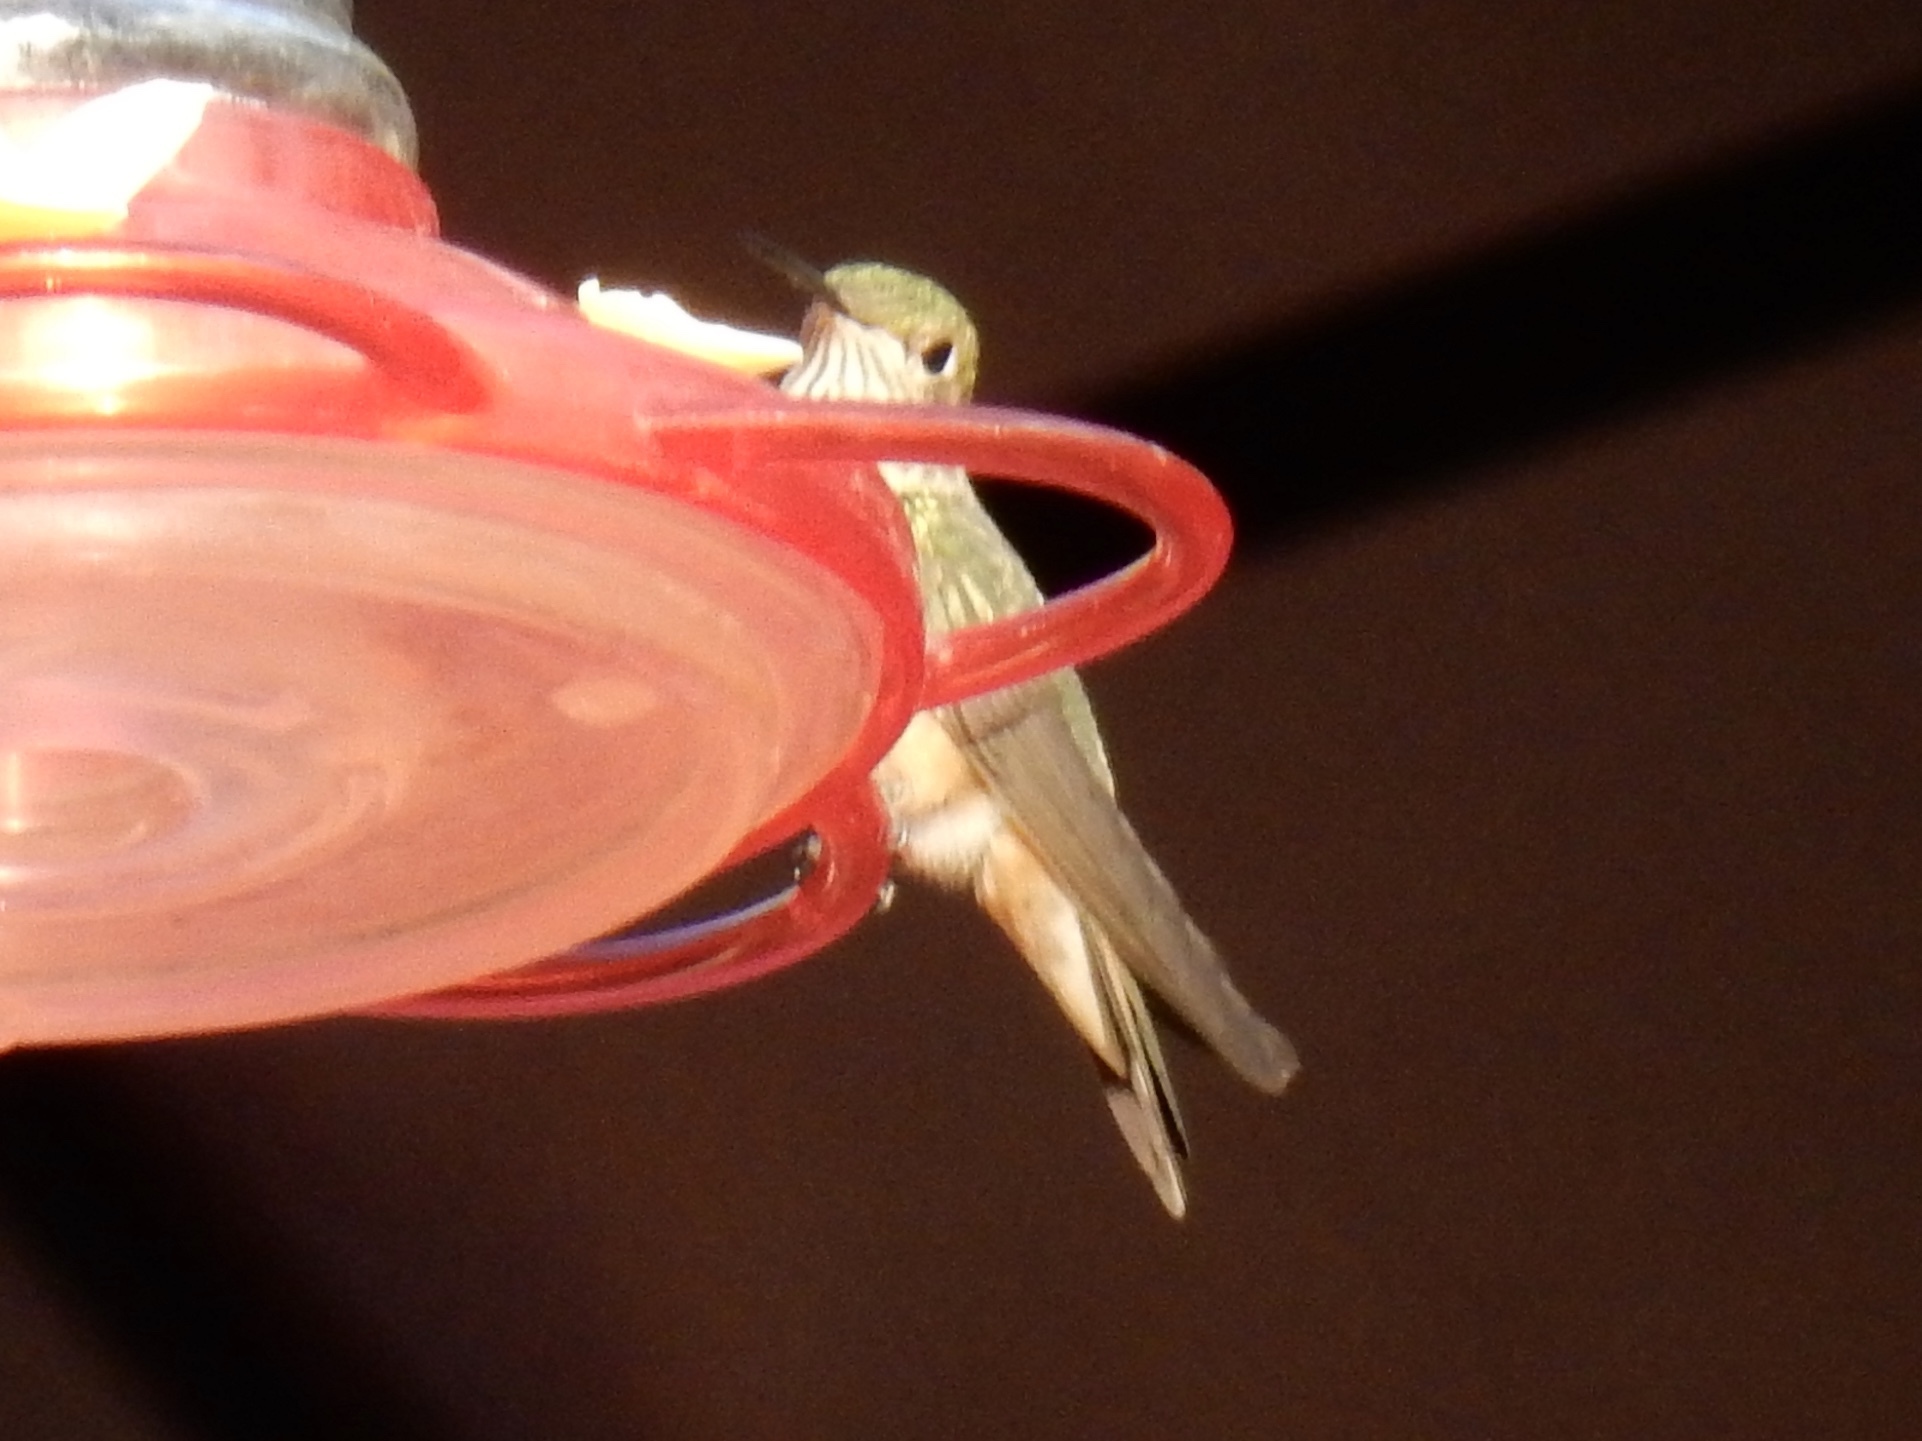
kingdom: Animalia
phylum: Chordata
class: Aves
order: Apodiformes
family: Trochilidae
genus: Selasphorus
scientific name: Selasphorus platycercus
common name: Broad-tailed hummingbird
